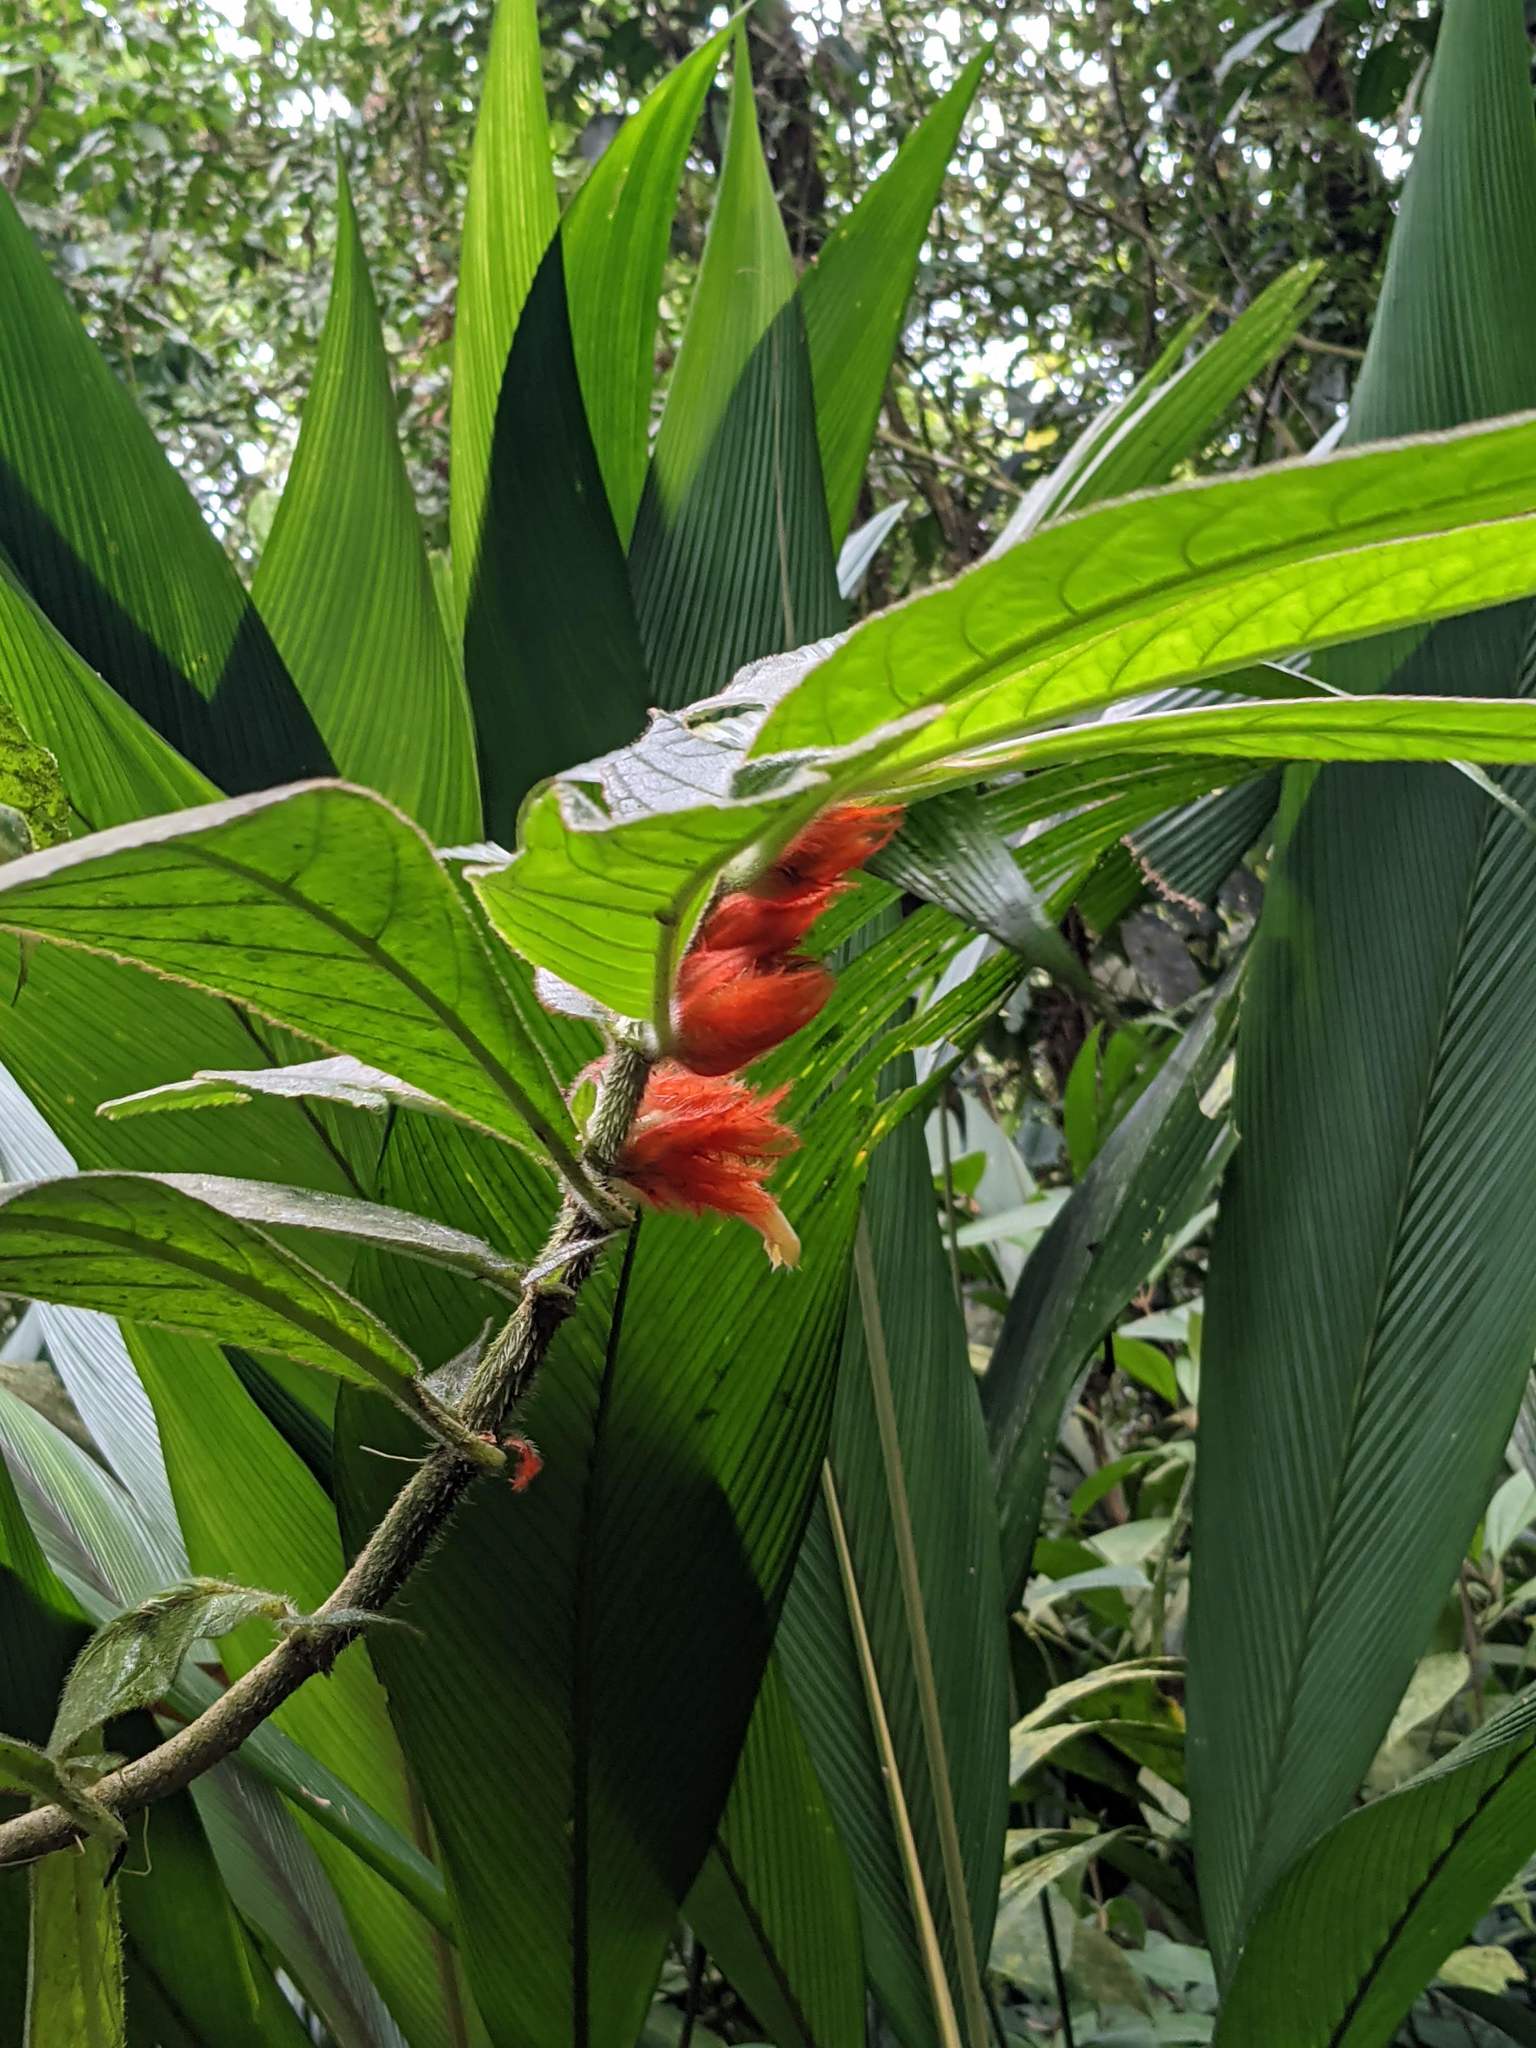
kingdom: Plantae
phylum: Tracheophyta
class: Magnoliopsida
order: Lamiales
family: Gesneriaceae
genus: Columnea
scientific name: Columnea purpurata
